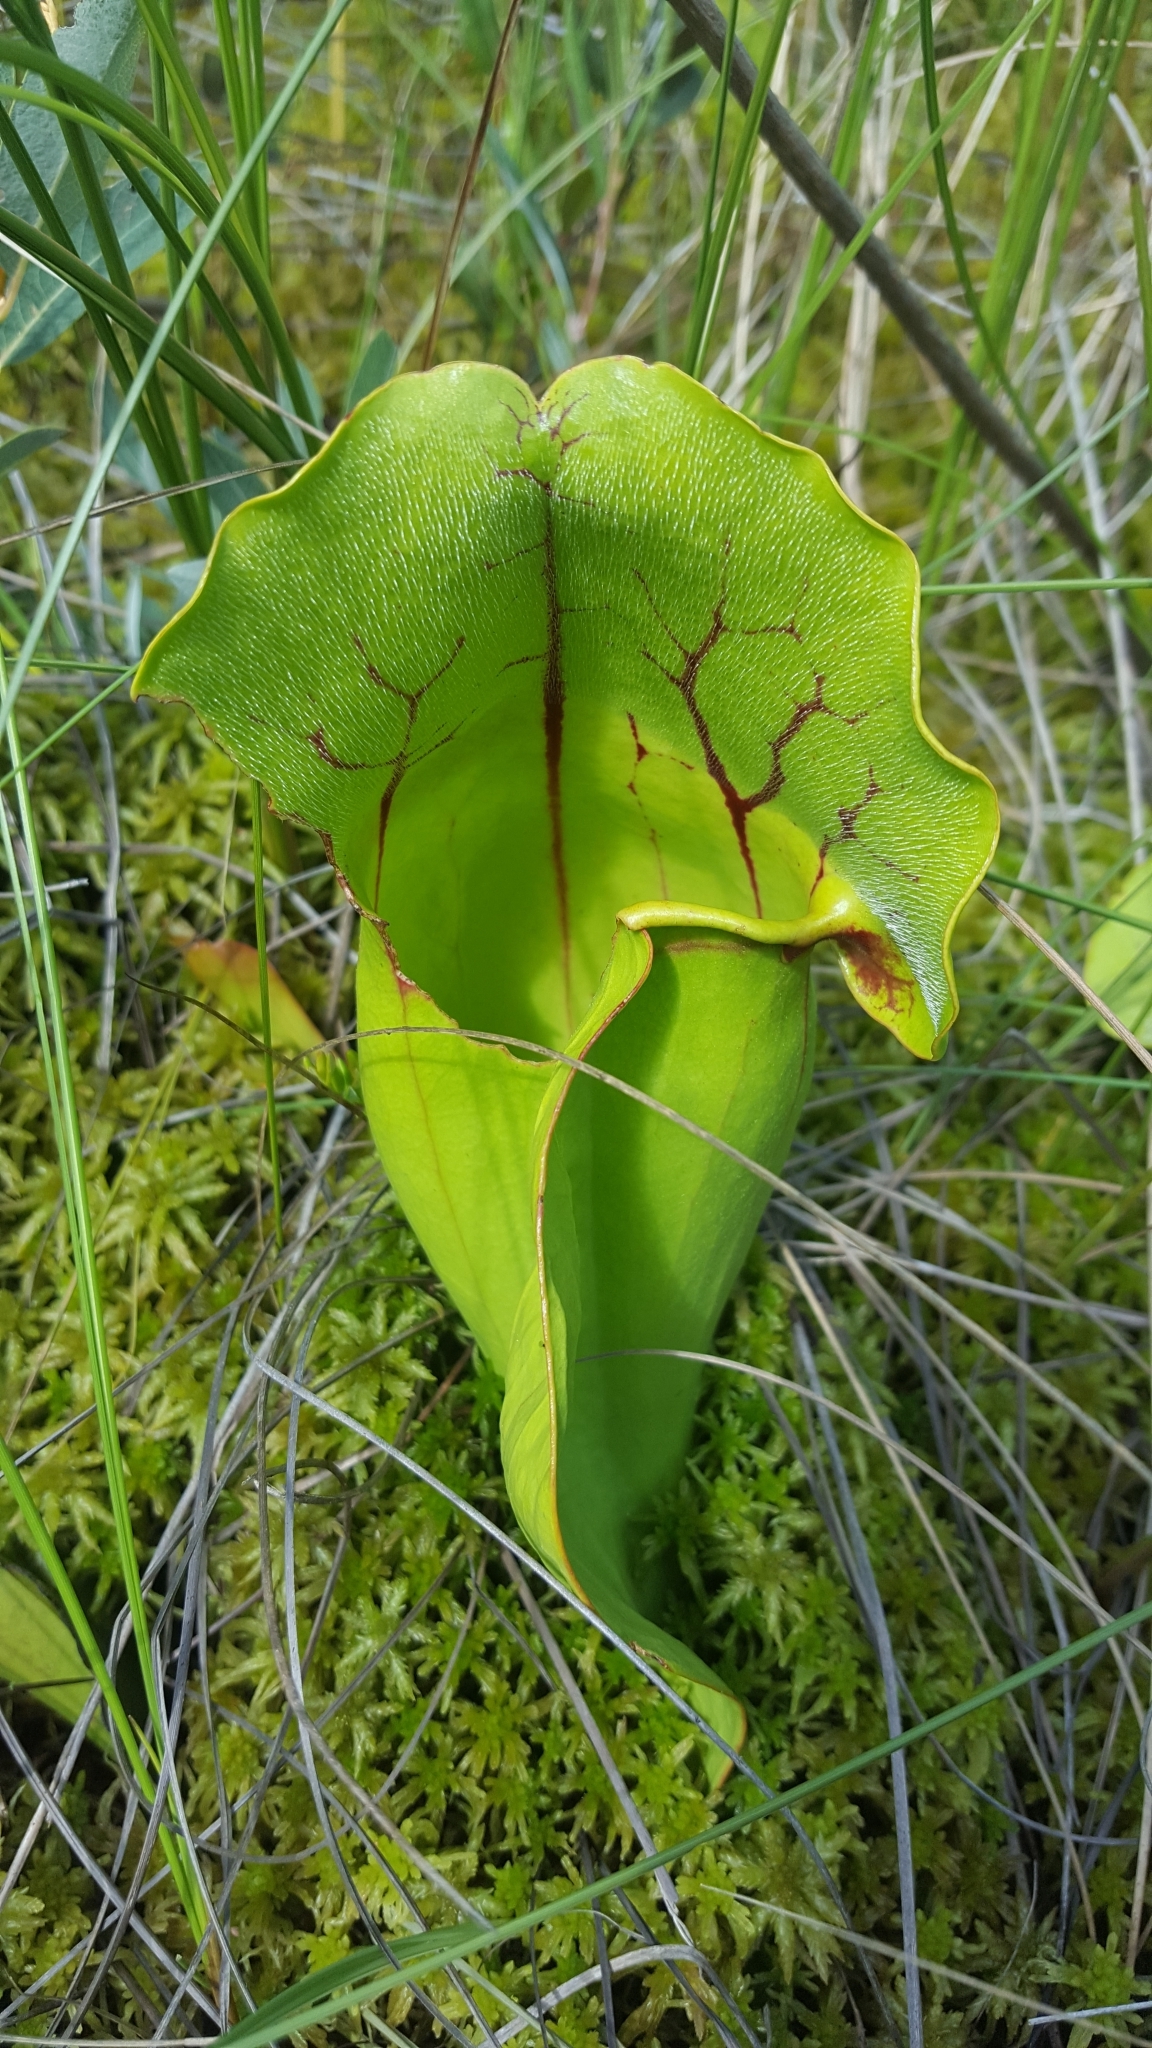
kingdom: Plantae
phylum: Tracheophyta
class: Magnoliopsida
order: Ericales
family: Sarraceniaceae
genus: Sarracenia
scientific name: Sarracenia purpurea
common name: Pitcherplant
